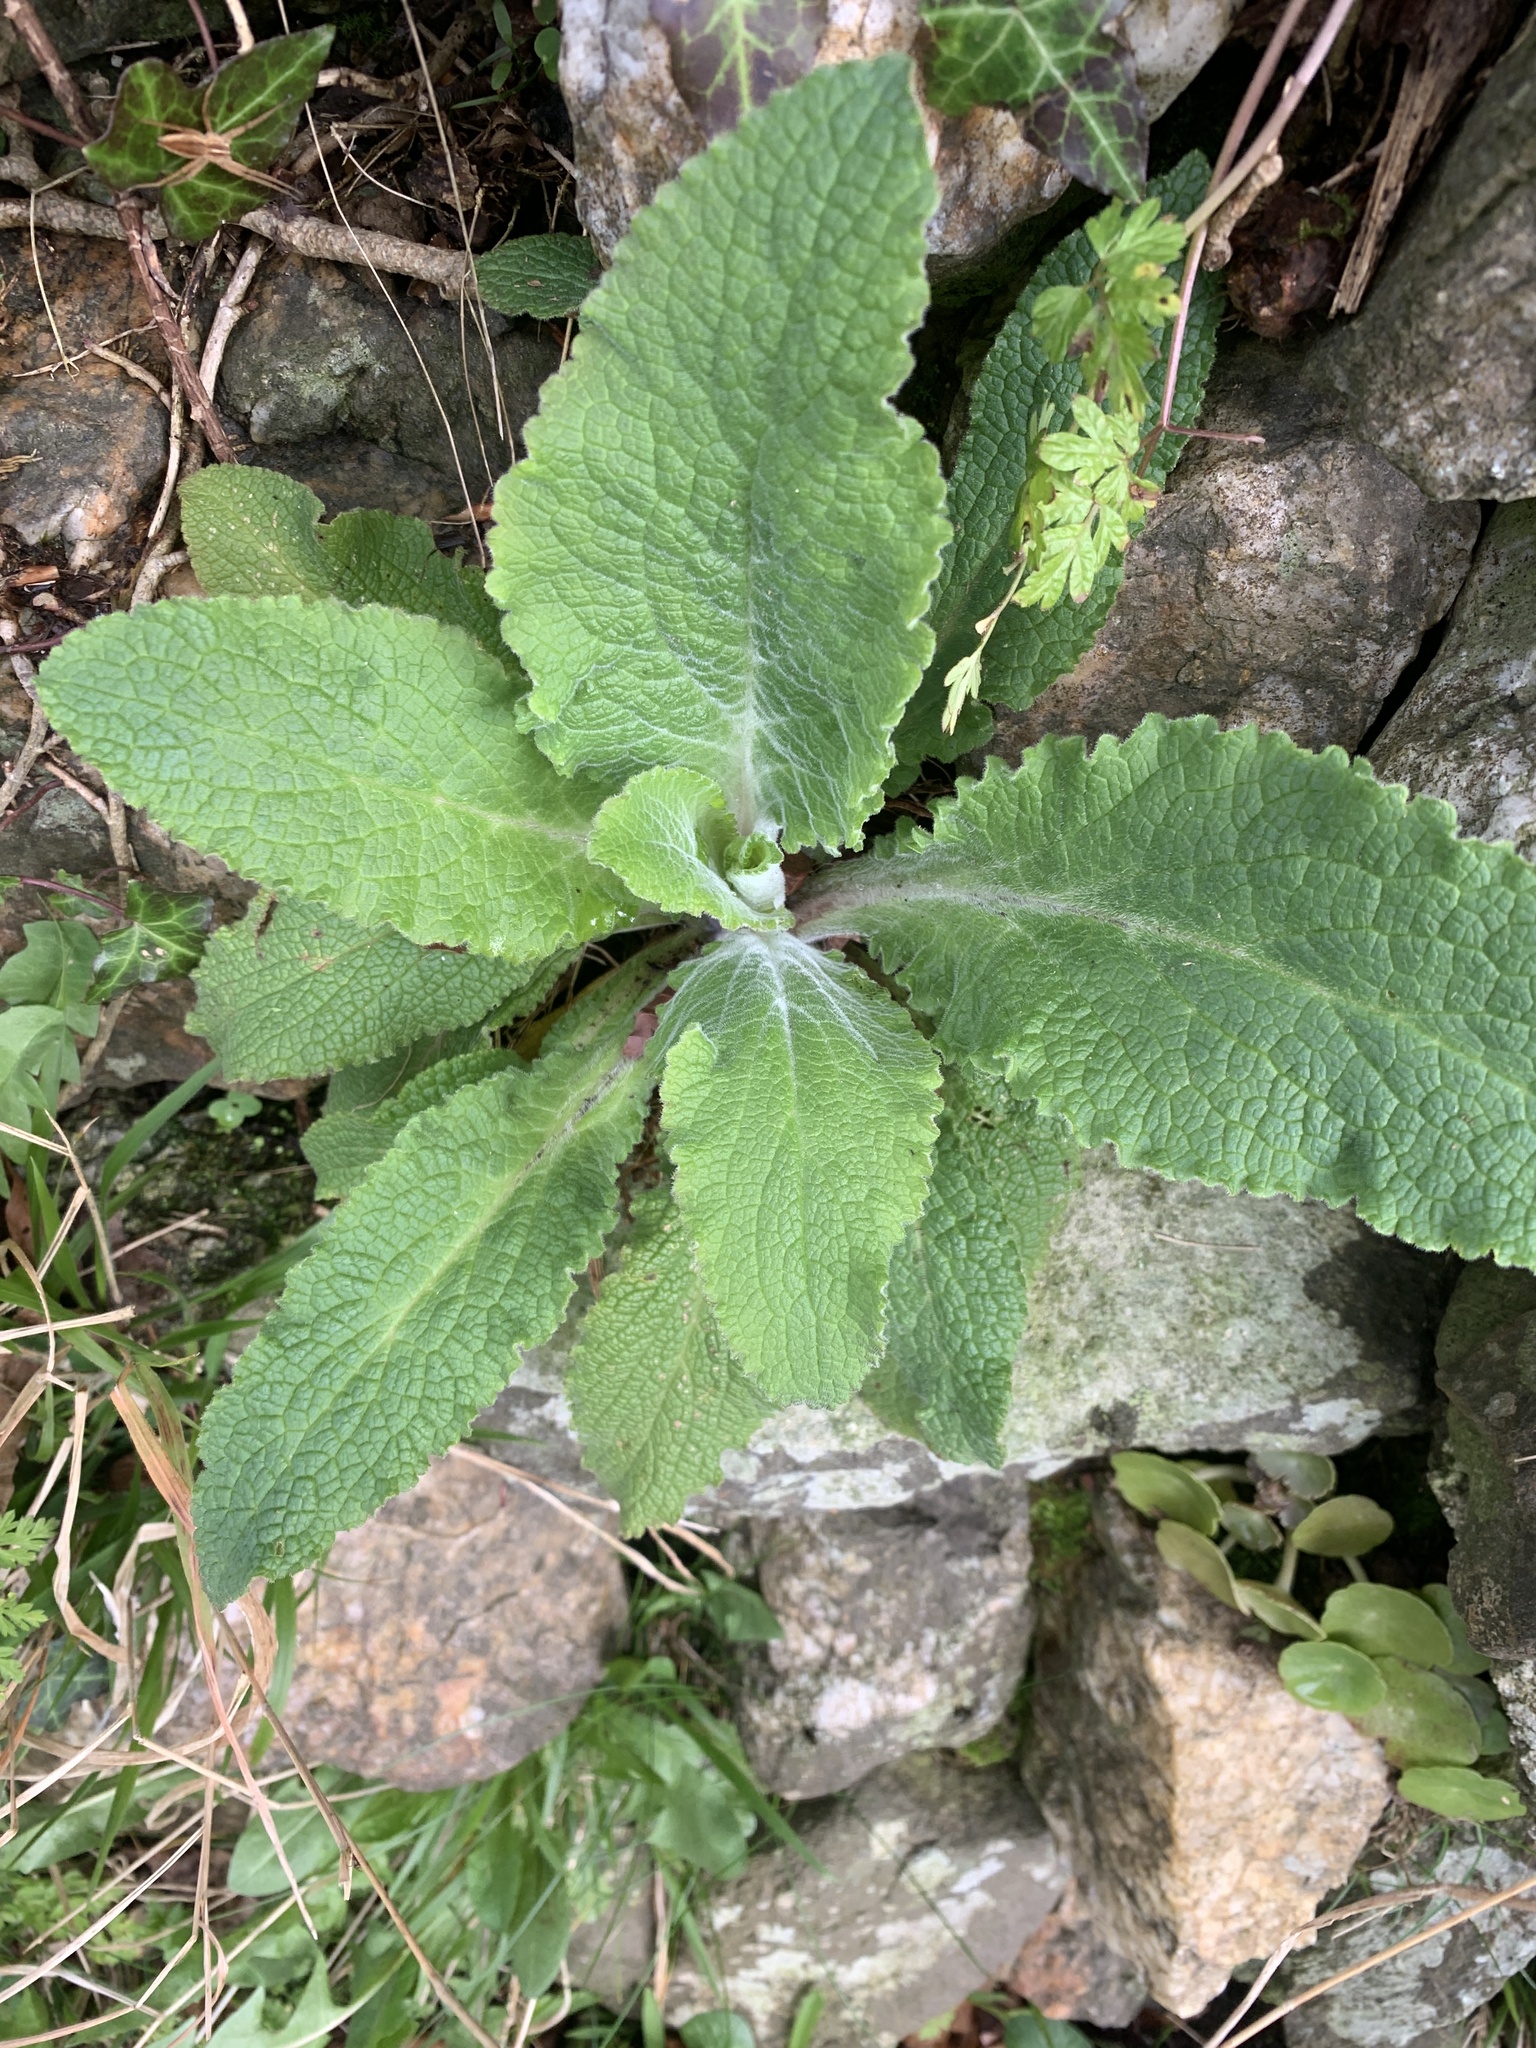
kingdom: Plantae
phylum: Tracheophyta
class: Magnoliopsida
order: Lamiales
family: Plantaginaceae
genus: Digitalis
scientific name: Digitalis purpurea
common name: Foxglove
